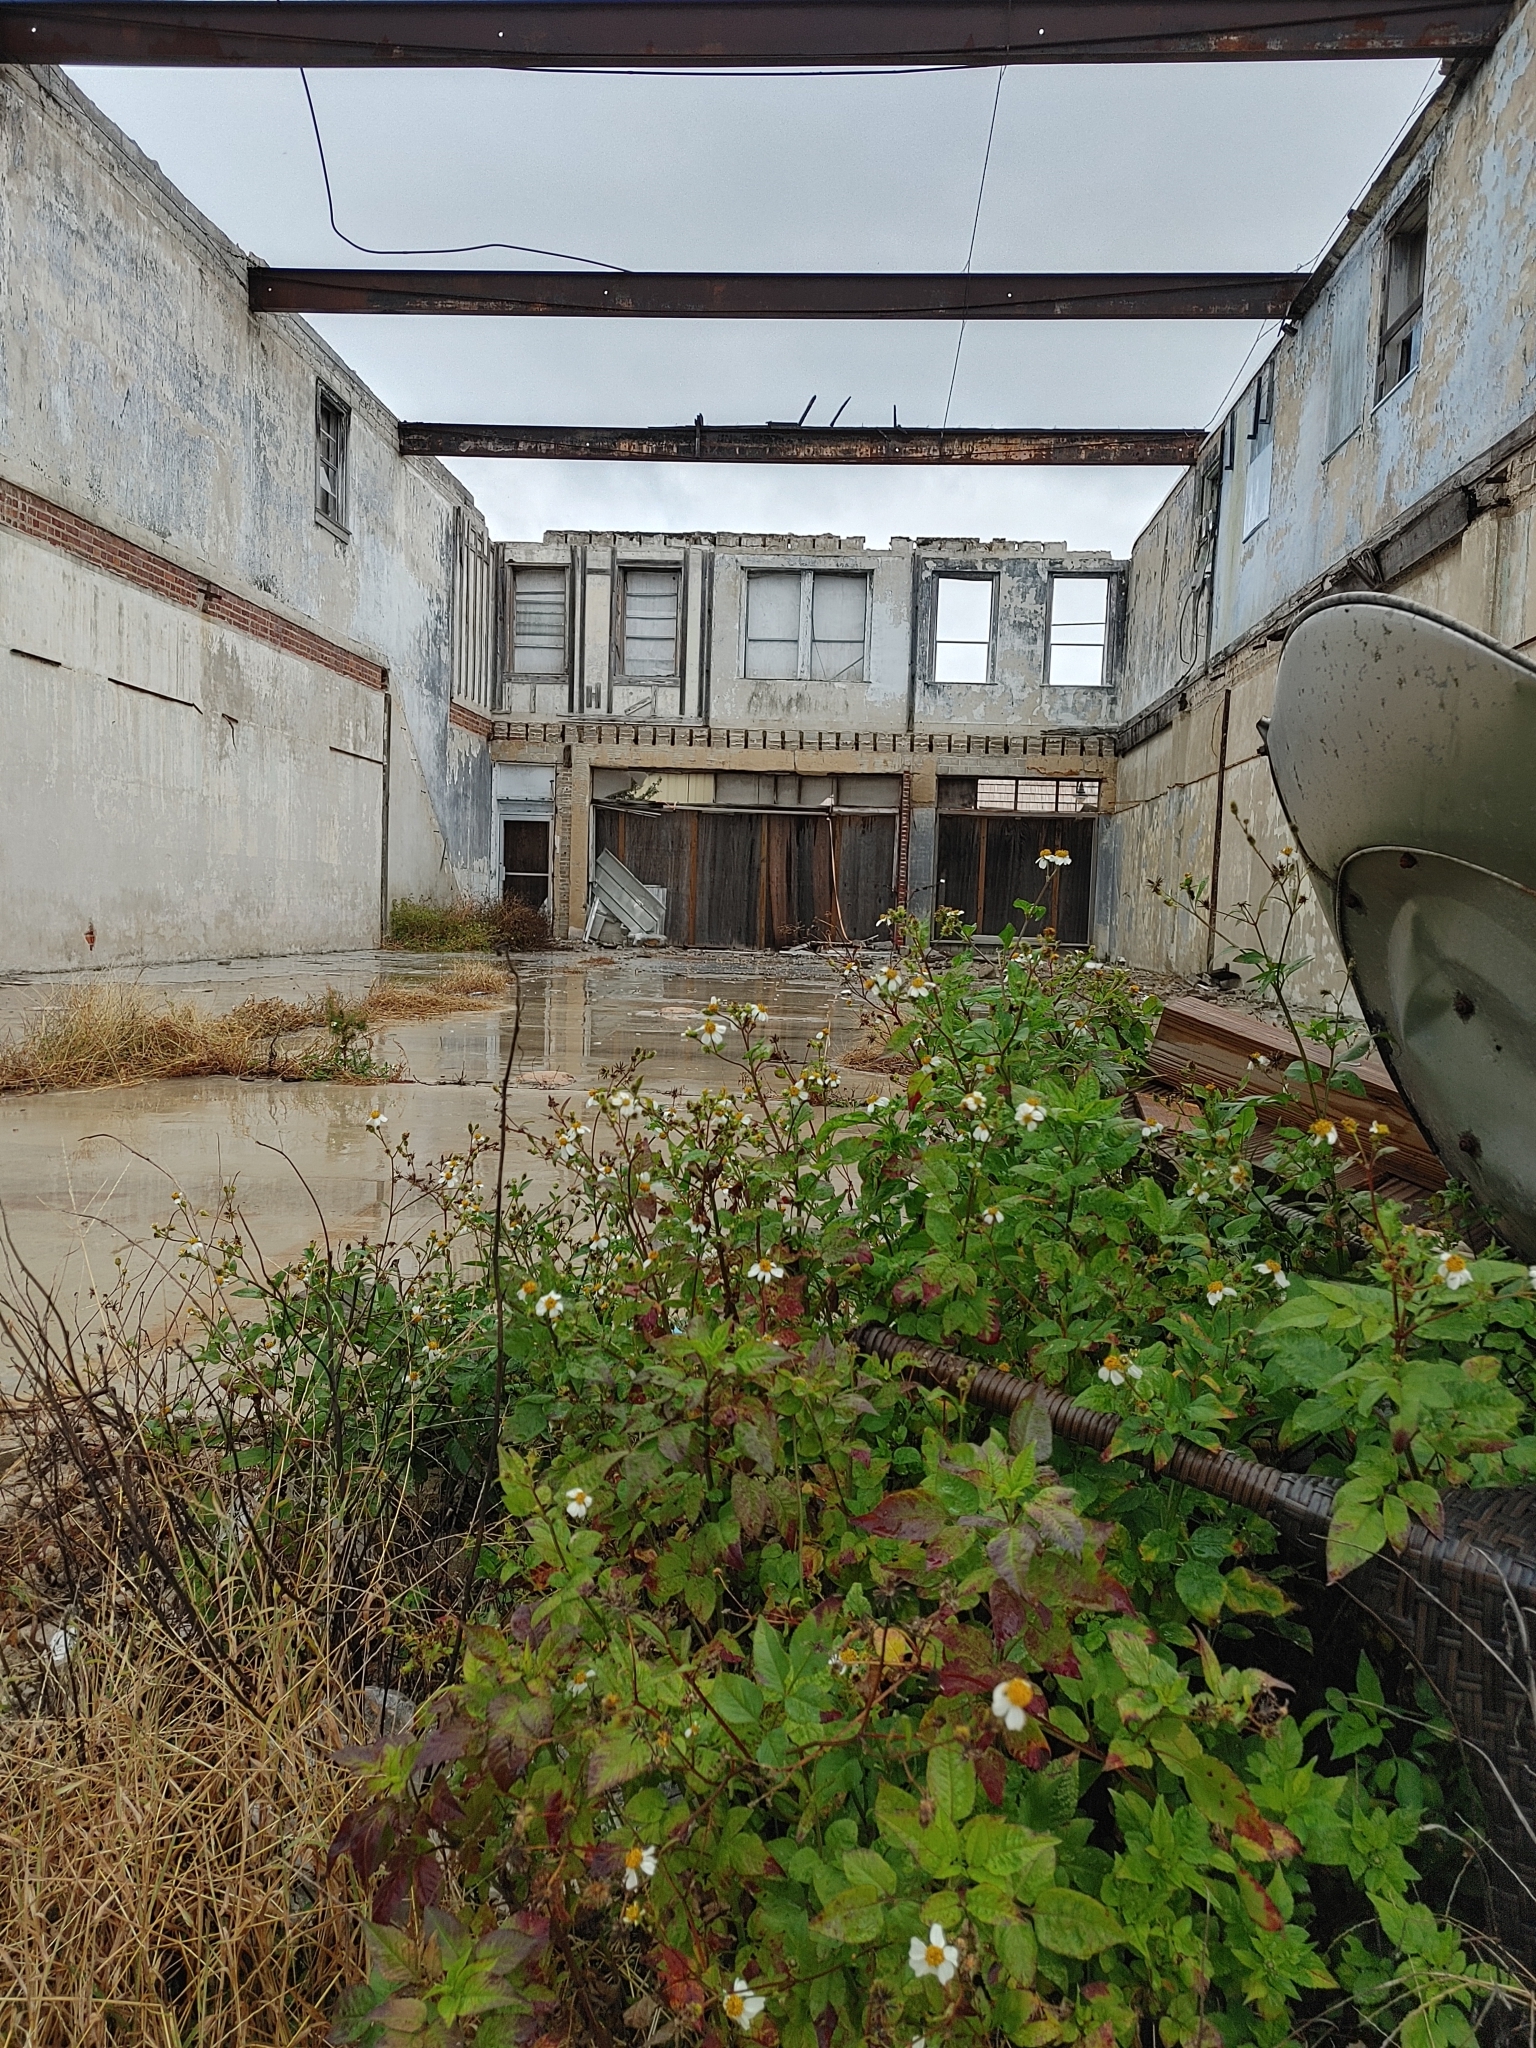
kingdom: Plantae
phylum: Tracheophyta
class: Magnoliopsida
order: Asterales
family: Asteraceae
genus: Bidens
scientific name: Bidens alba
